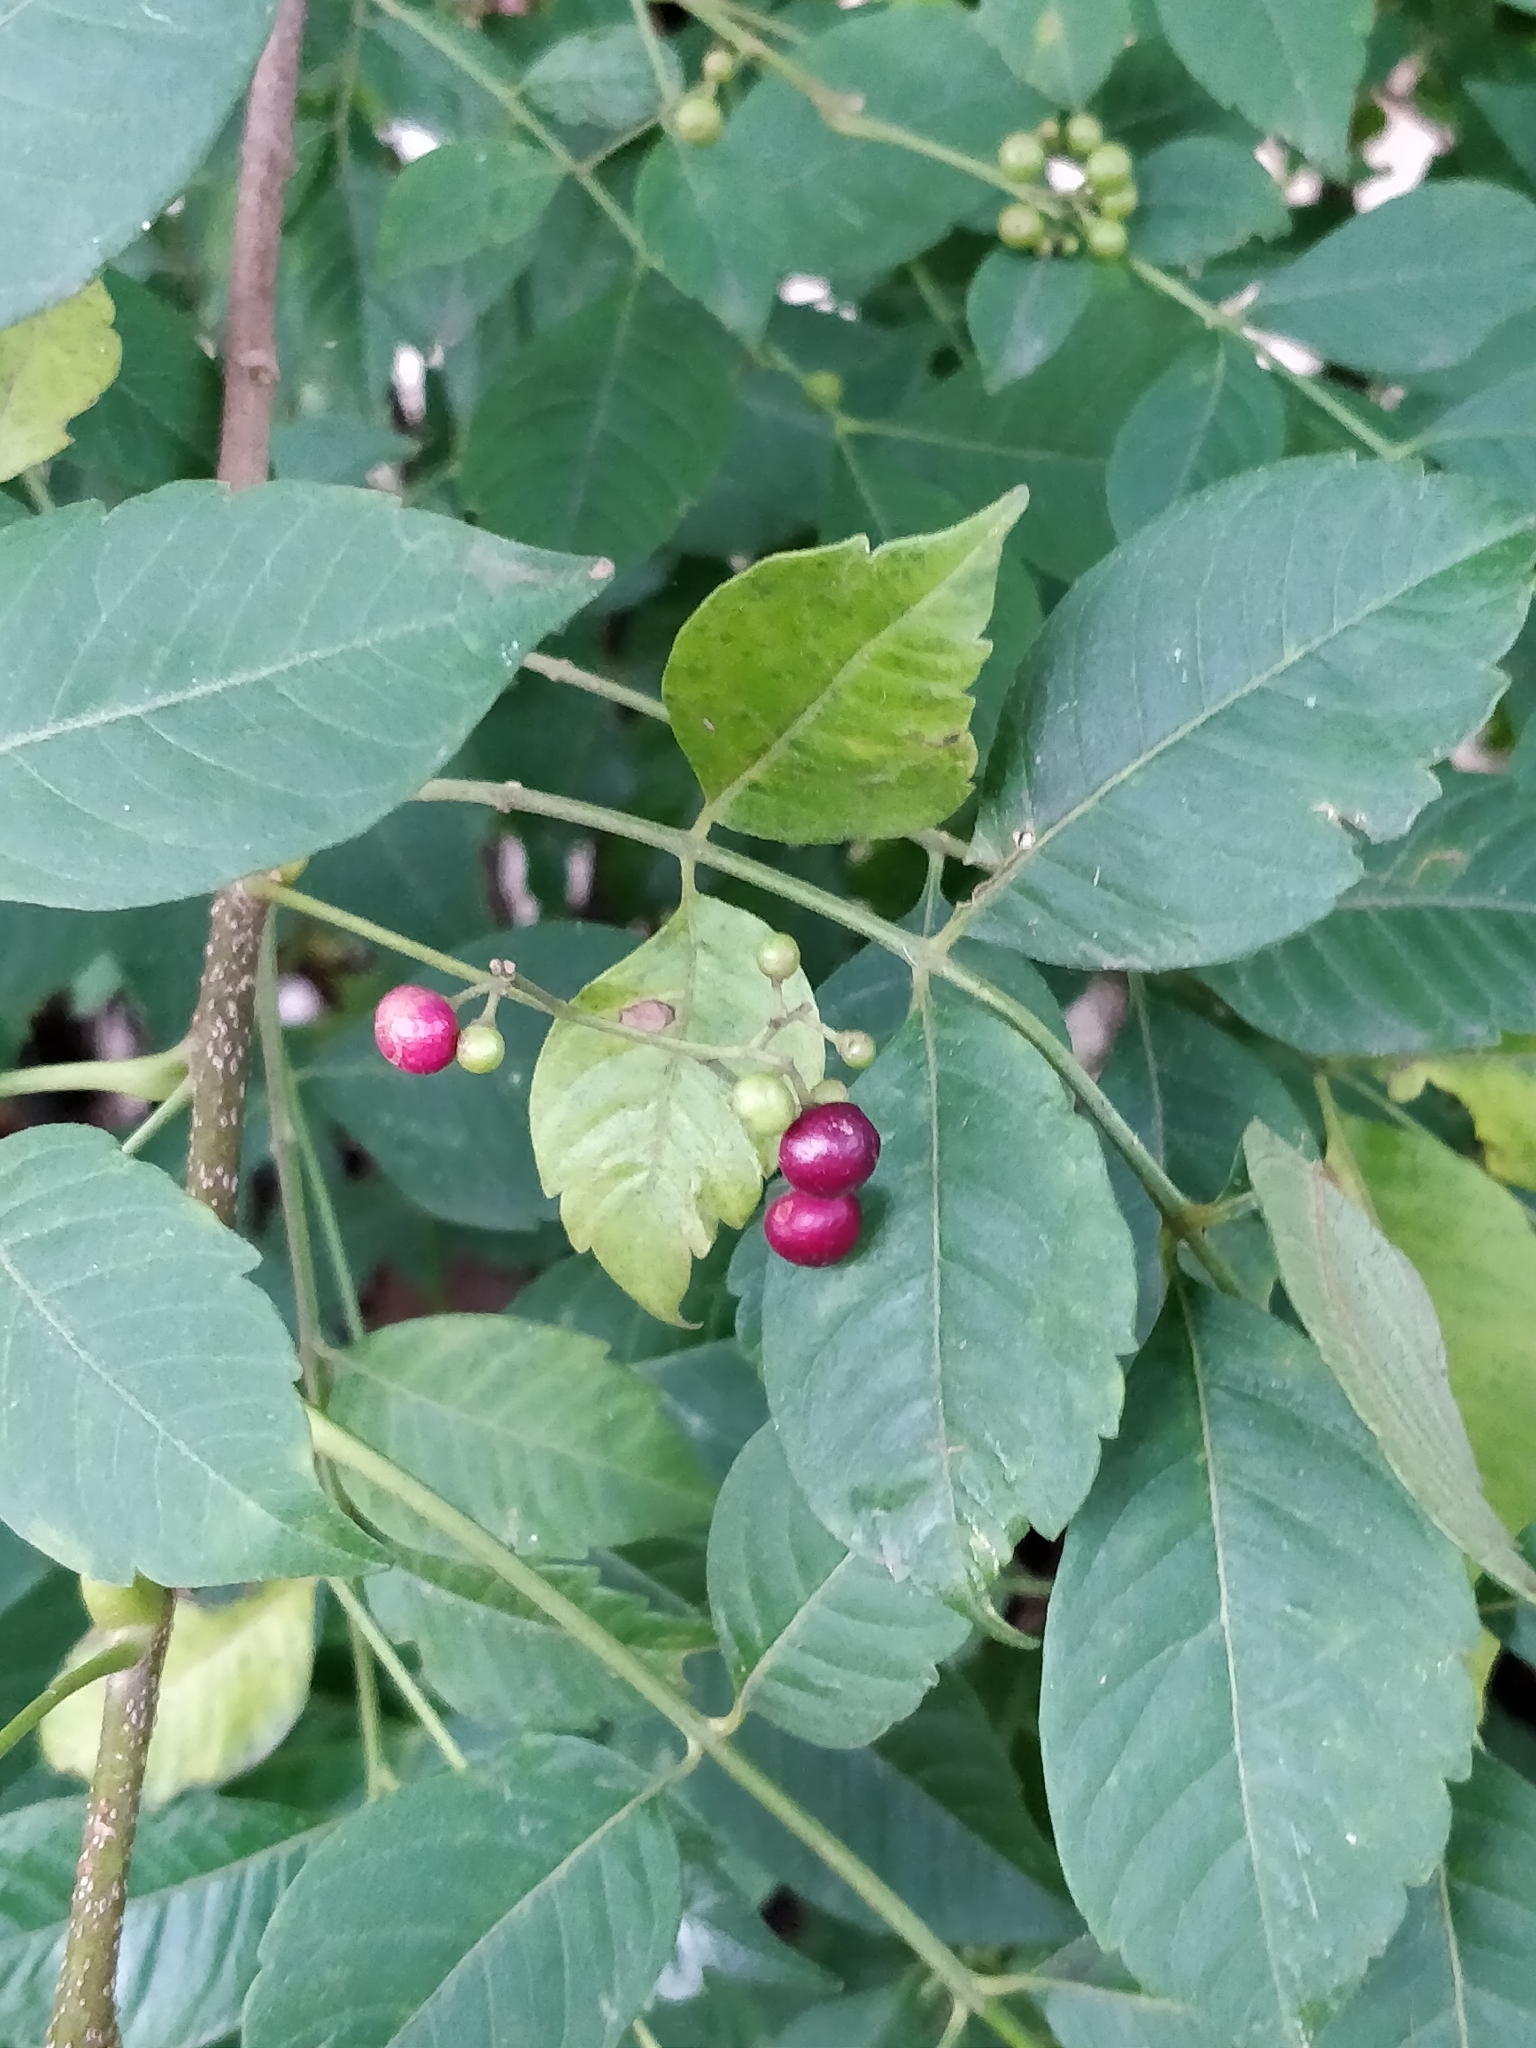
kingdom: Plantae
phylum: Tracheophyta
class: Magnoliopsida
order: Sapindales
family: Meliaceae
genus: Cipadessa
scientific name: Cipadessa baccifera
